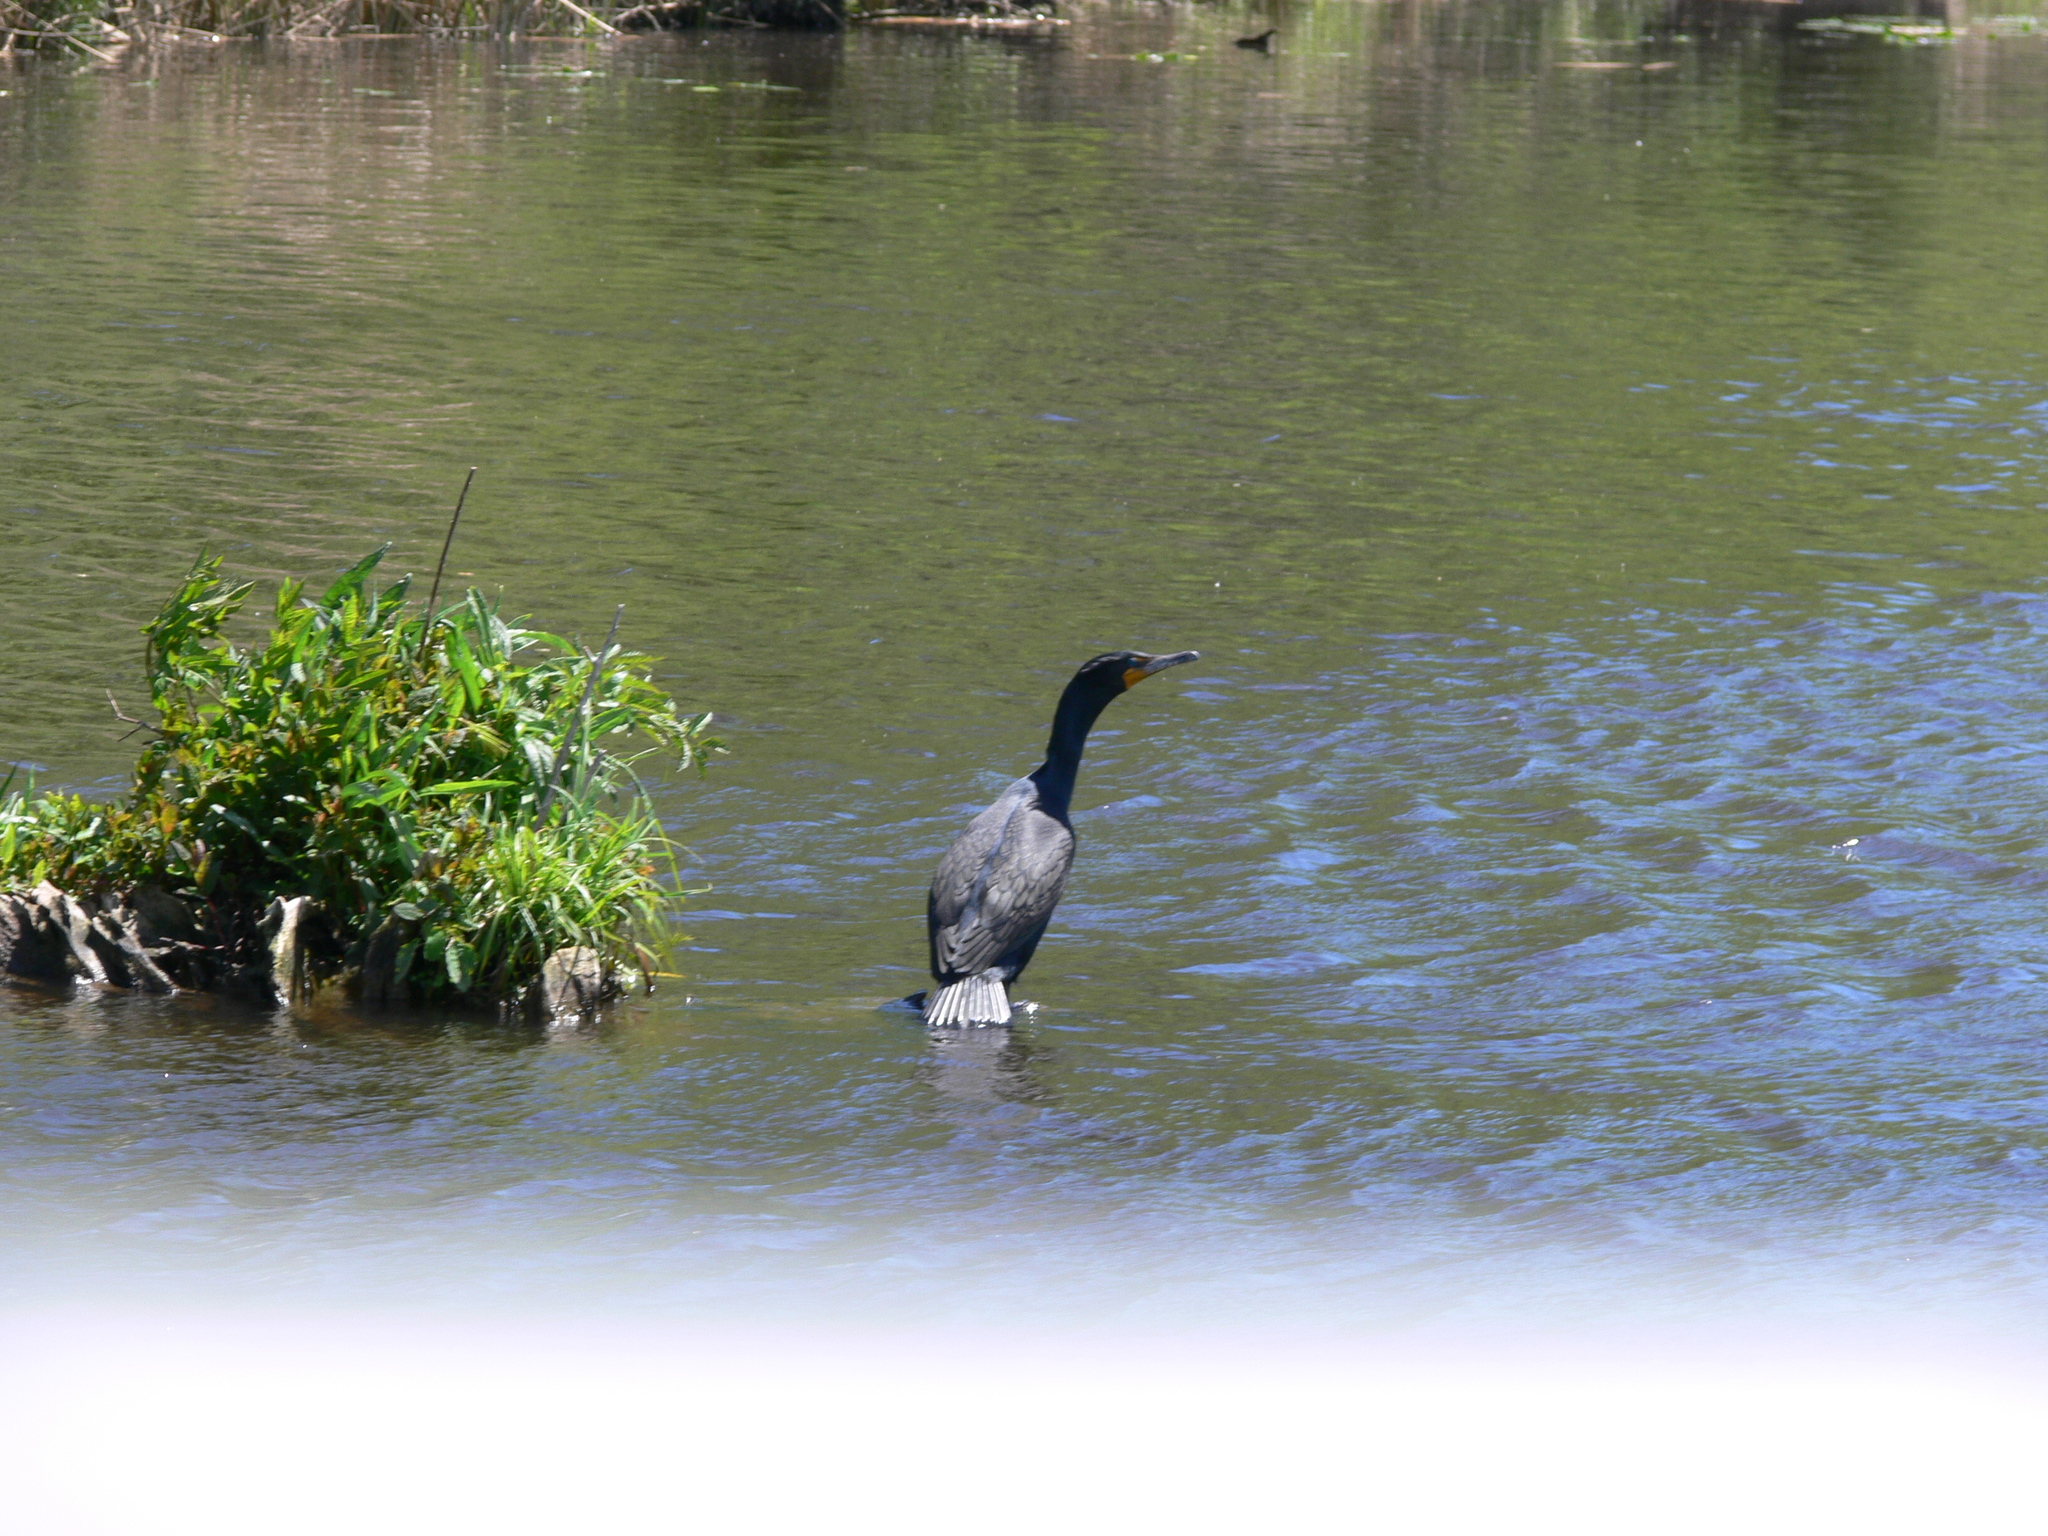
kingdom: Animalia
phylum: Chordata
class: Aves
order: Suliformes
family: Phalacrocoracidae
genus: Phalacrocorax
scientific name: Phalacrocorax auritus
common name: Double-crested cormorant
